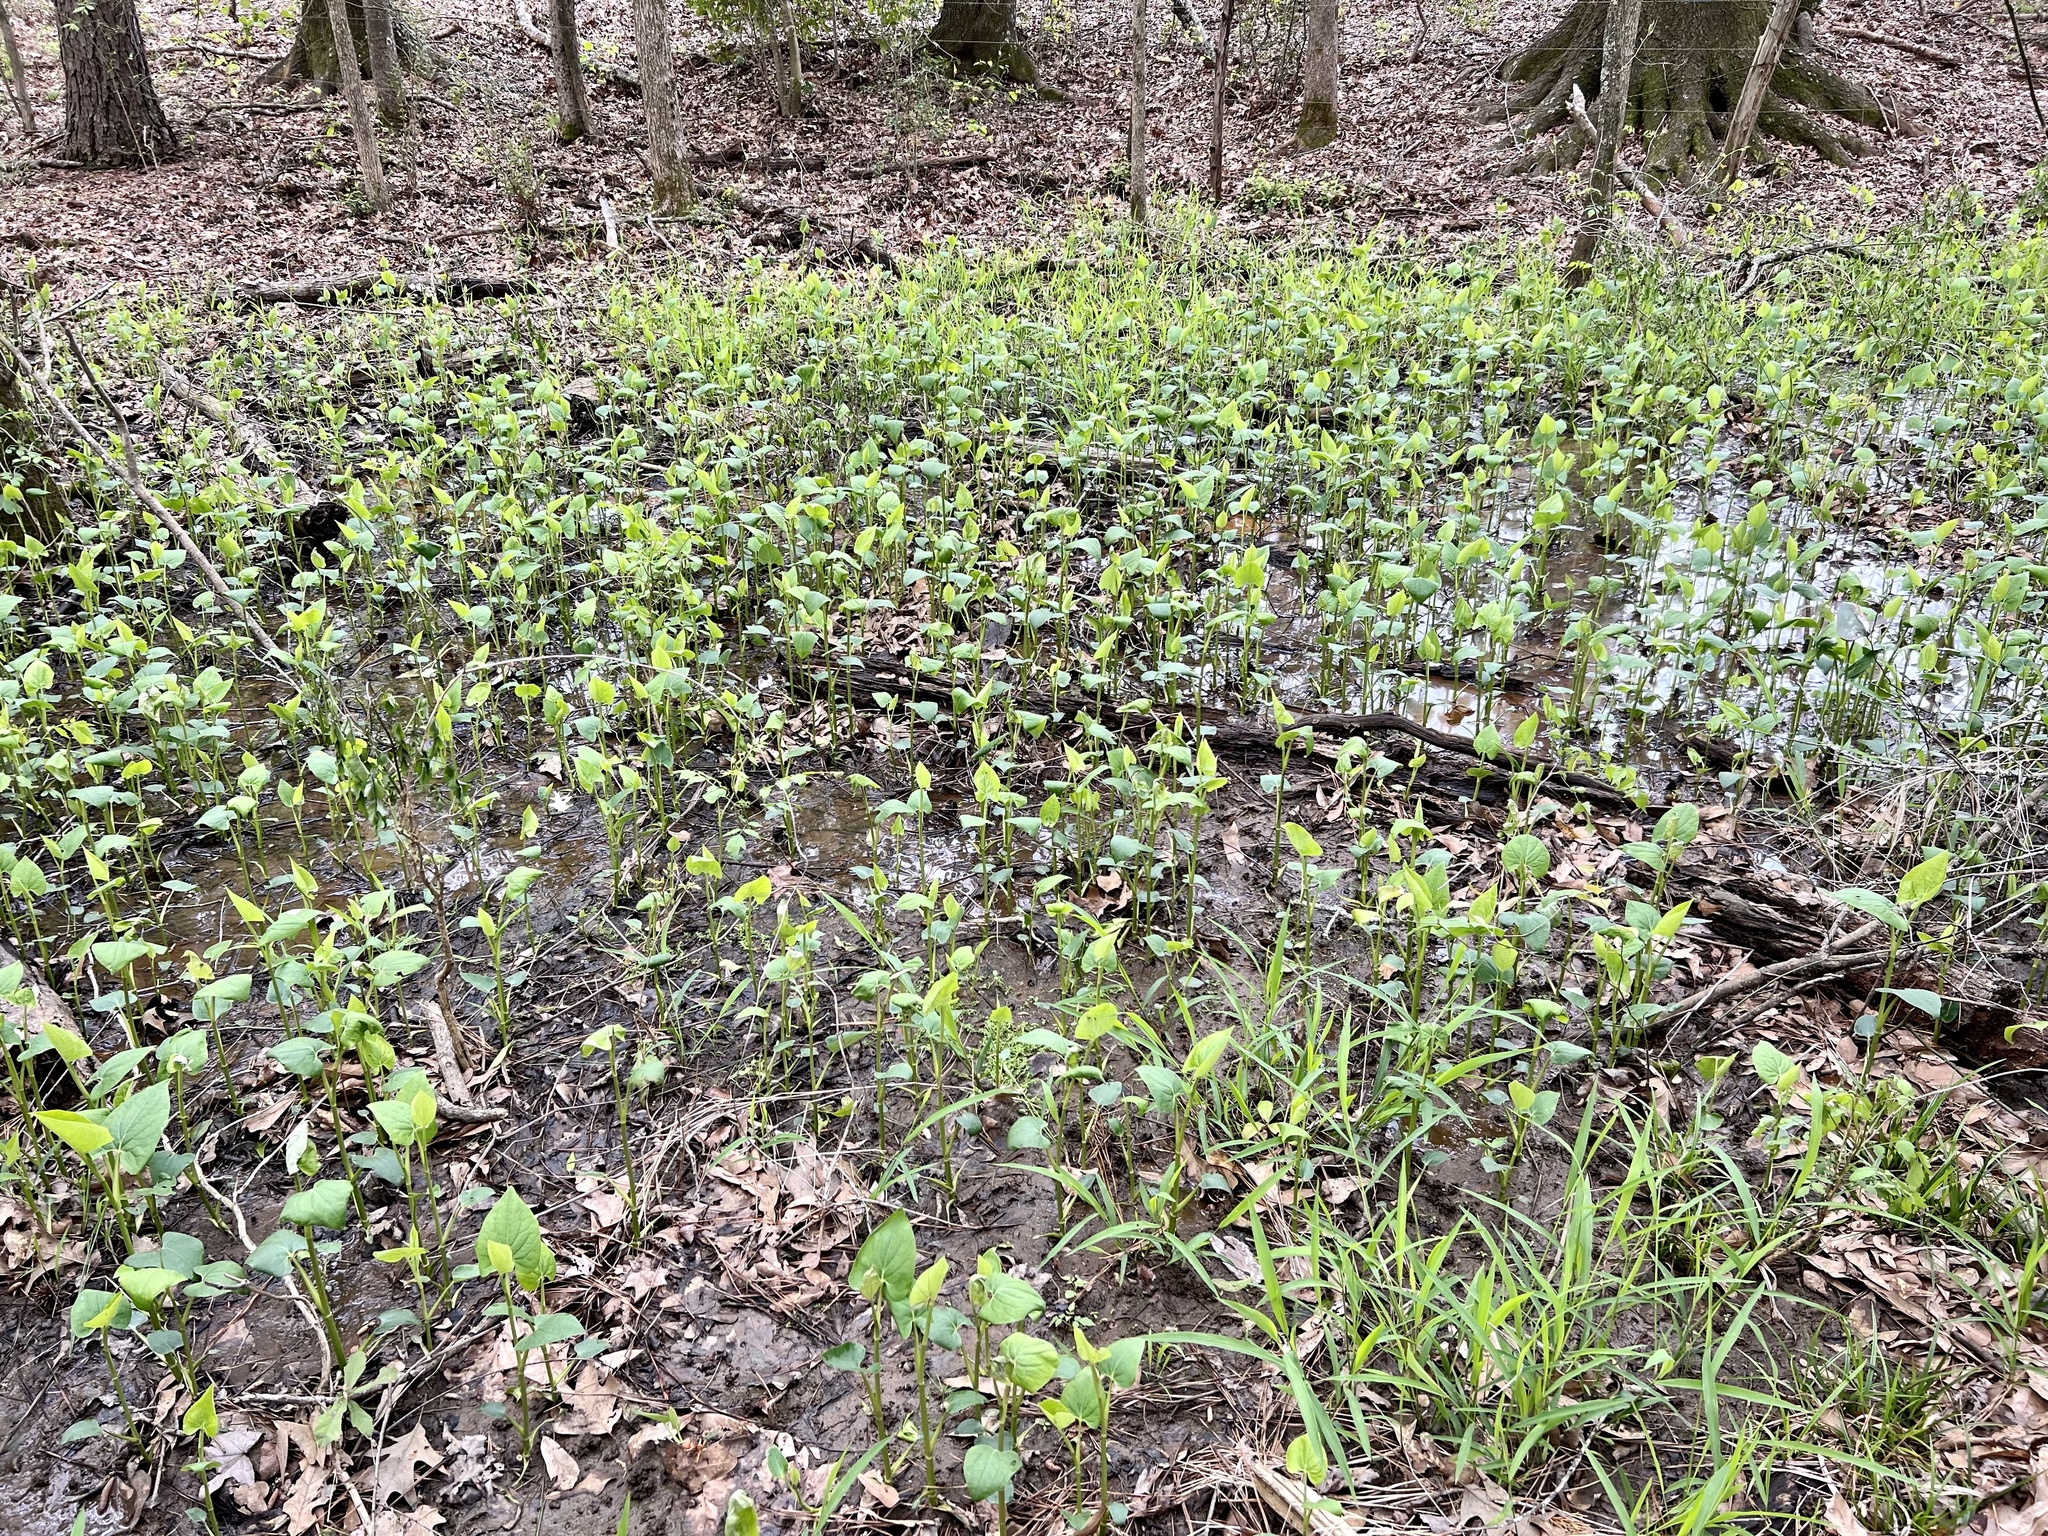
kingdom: Plantae
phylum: Tracheophyta
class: Magnoliopsida
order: Piperales
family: Saururaceae
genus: Saururus
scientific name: Saururus cernuus
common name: Lizard's-tail
